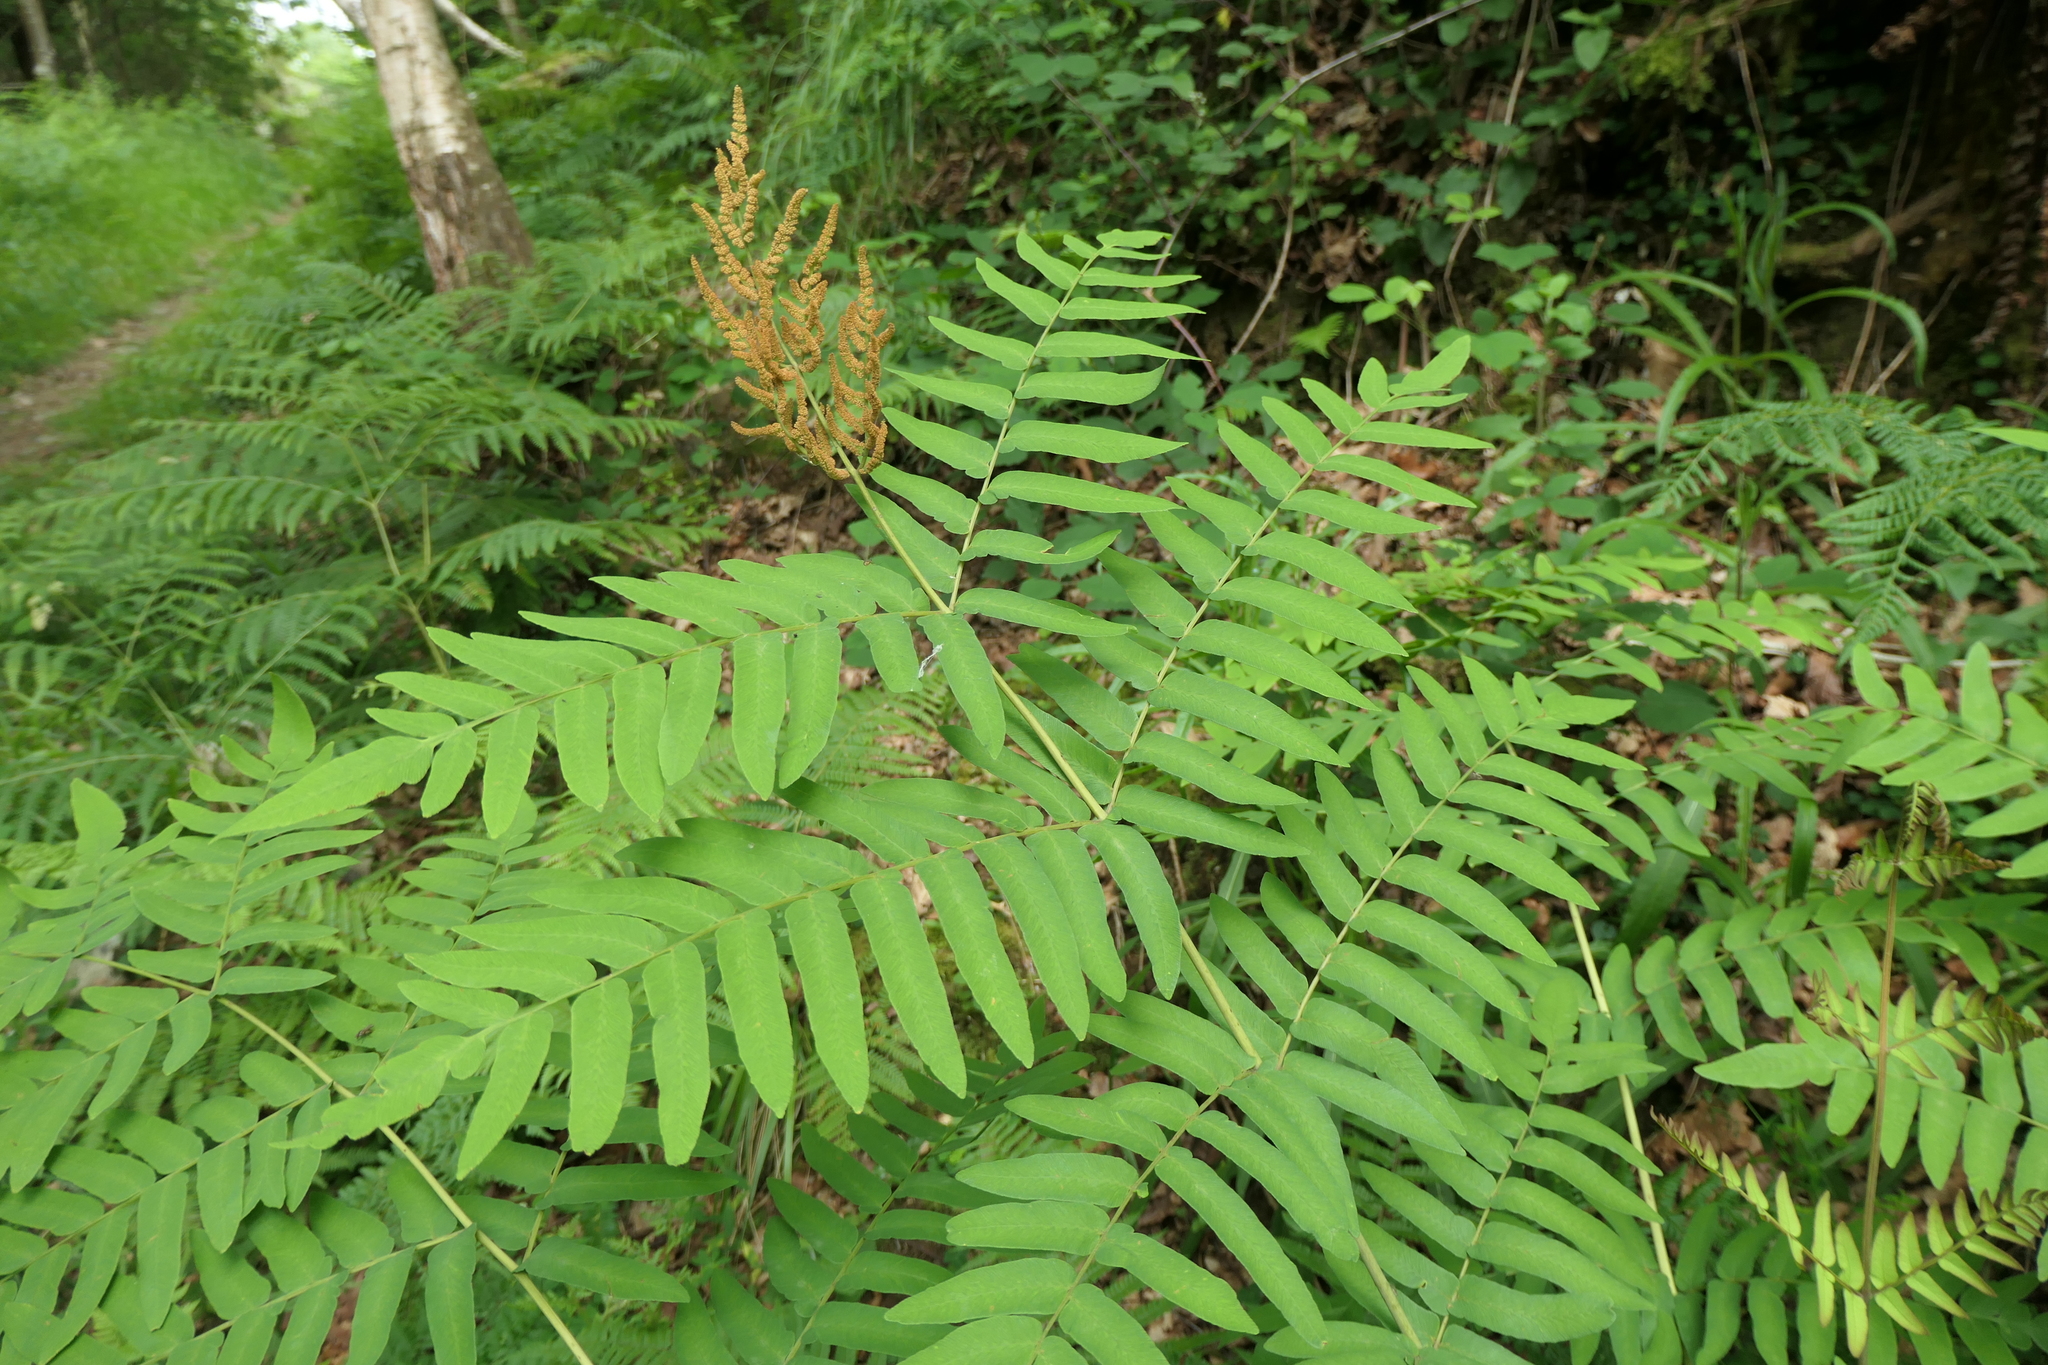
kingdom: Plantae
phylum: Tracheophyta
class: Polypodiopsida
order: Osmundales
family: Osmundaceae
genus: Osmunda
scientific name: Osmunda regalis
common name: Royal fern
